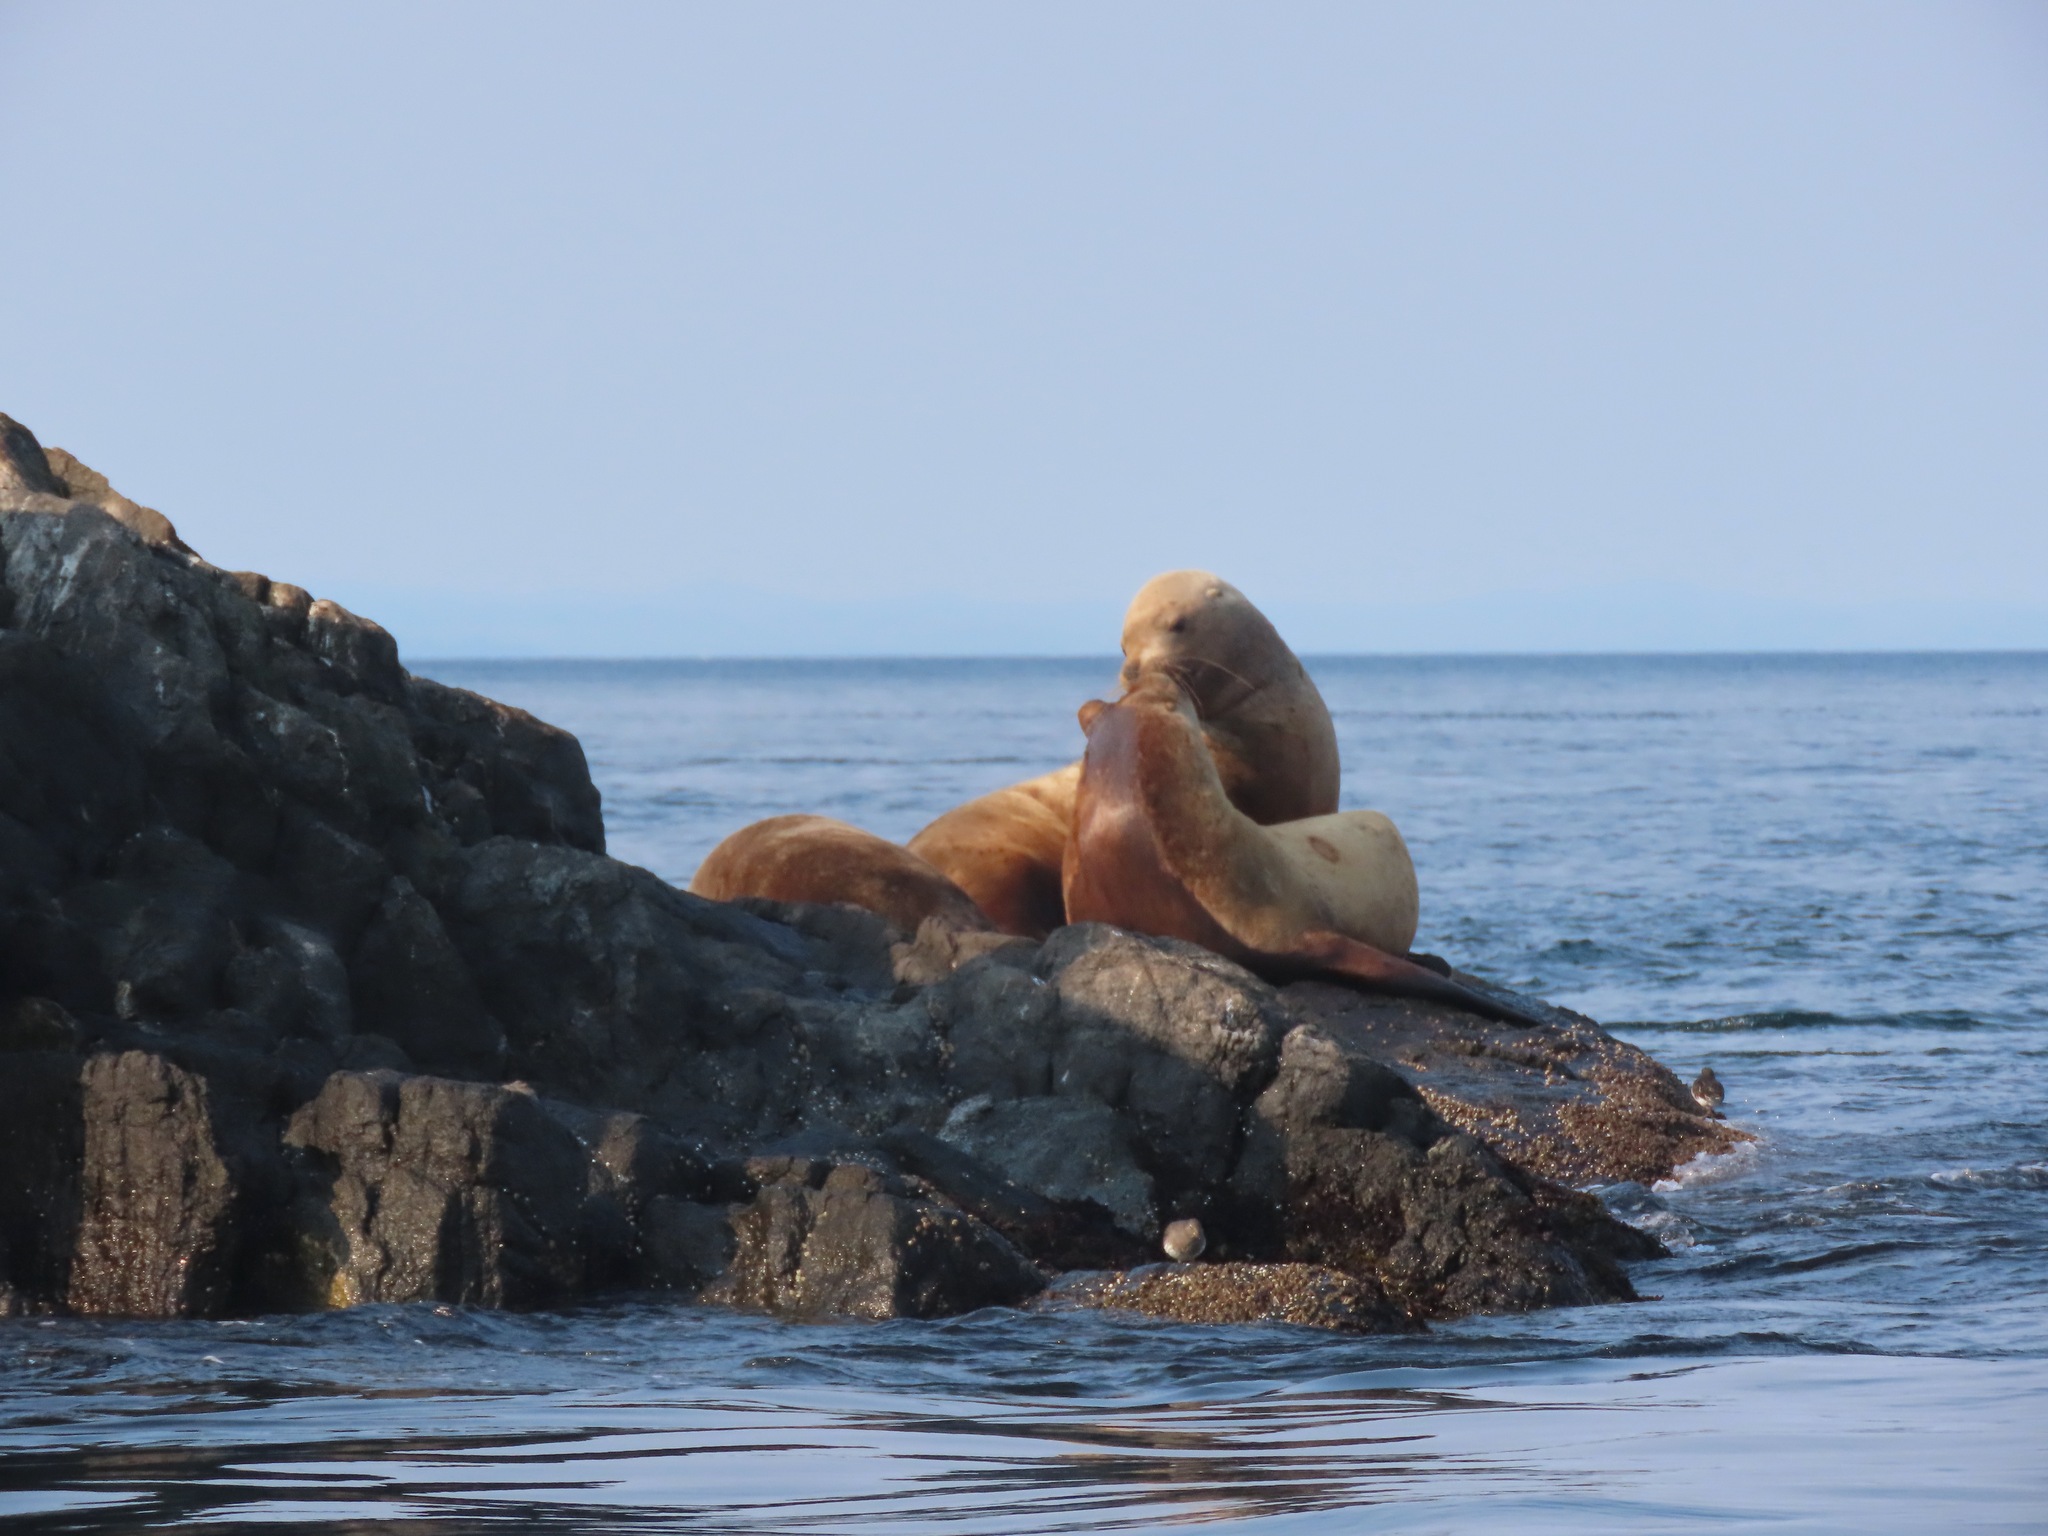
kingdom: Animalia
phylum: Chordata
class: Mammalia
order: Carnivora
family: Otariidae
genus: Eumetopias
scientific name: Eumetopias jubatus
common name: Steller sea lion
